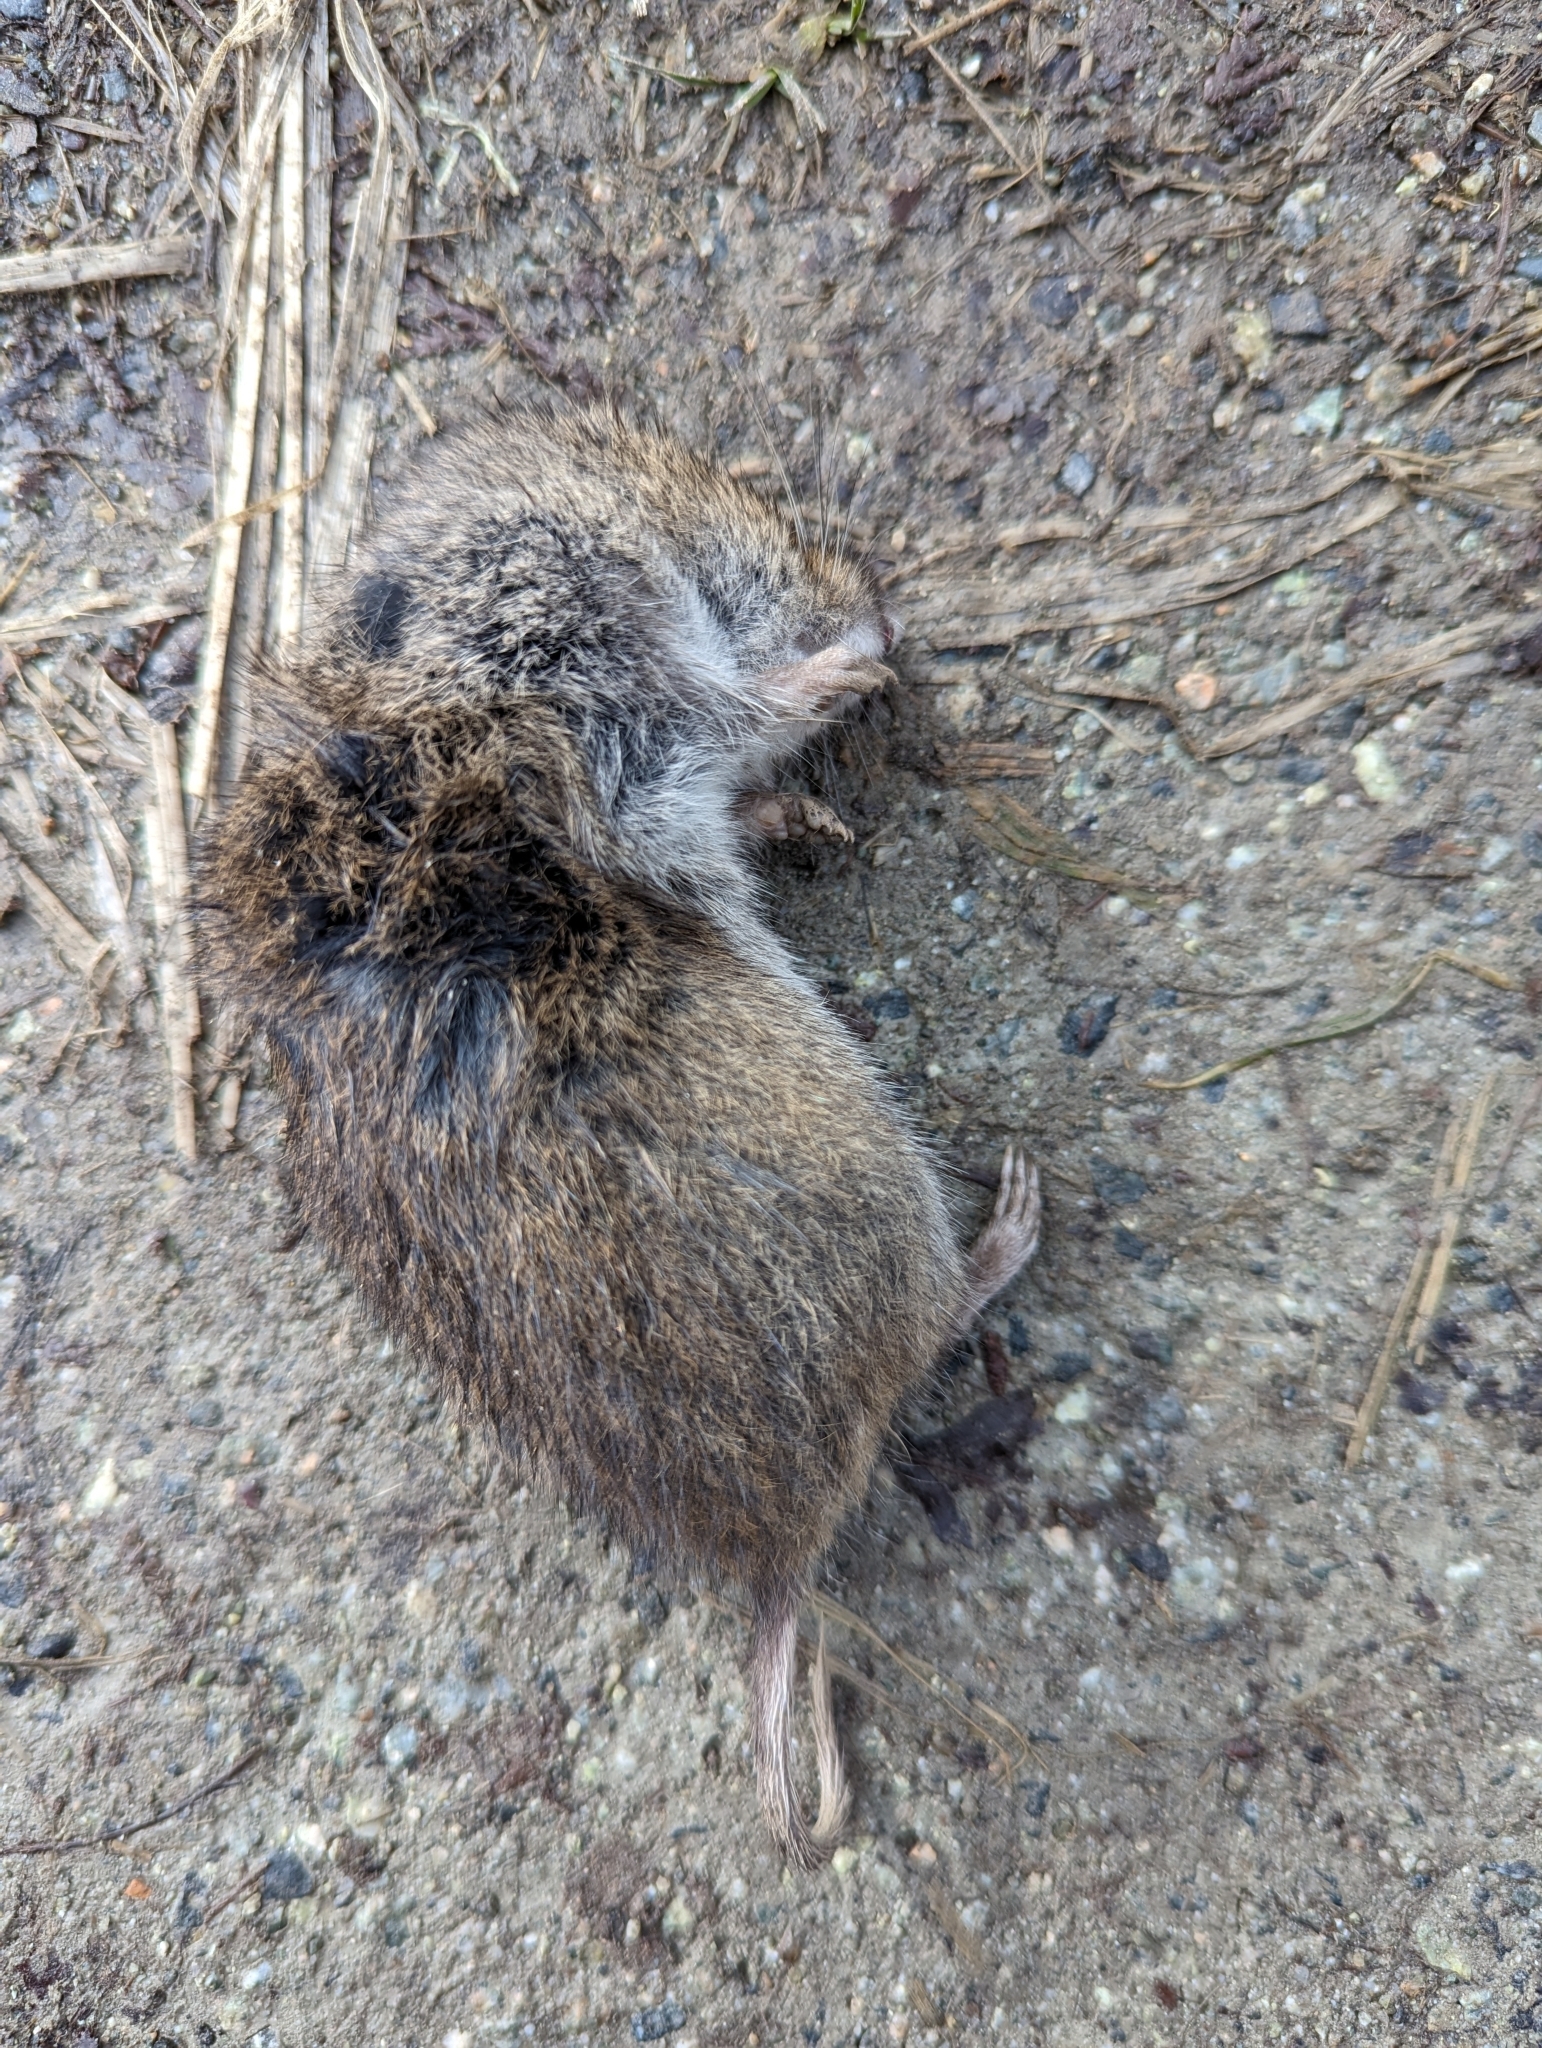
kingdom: Animalia
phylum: Chordata
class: Mammalia
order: Rodentia
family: Cricetidae
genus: Microtus
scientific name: Microtus townsendii
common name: Townsend's vole
